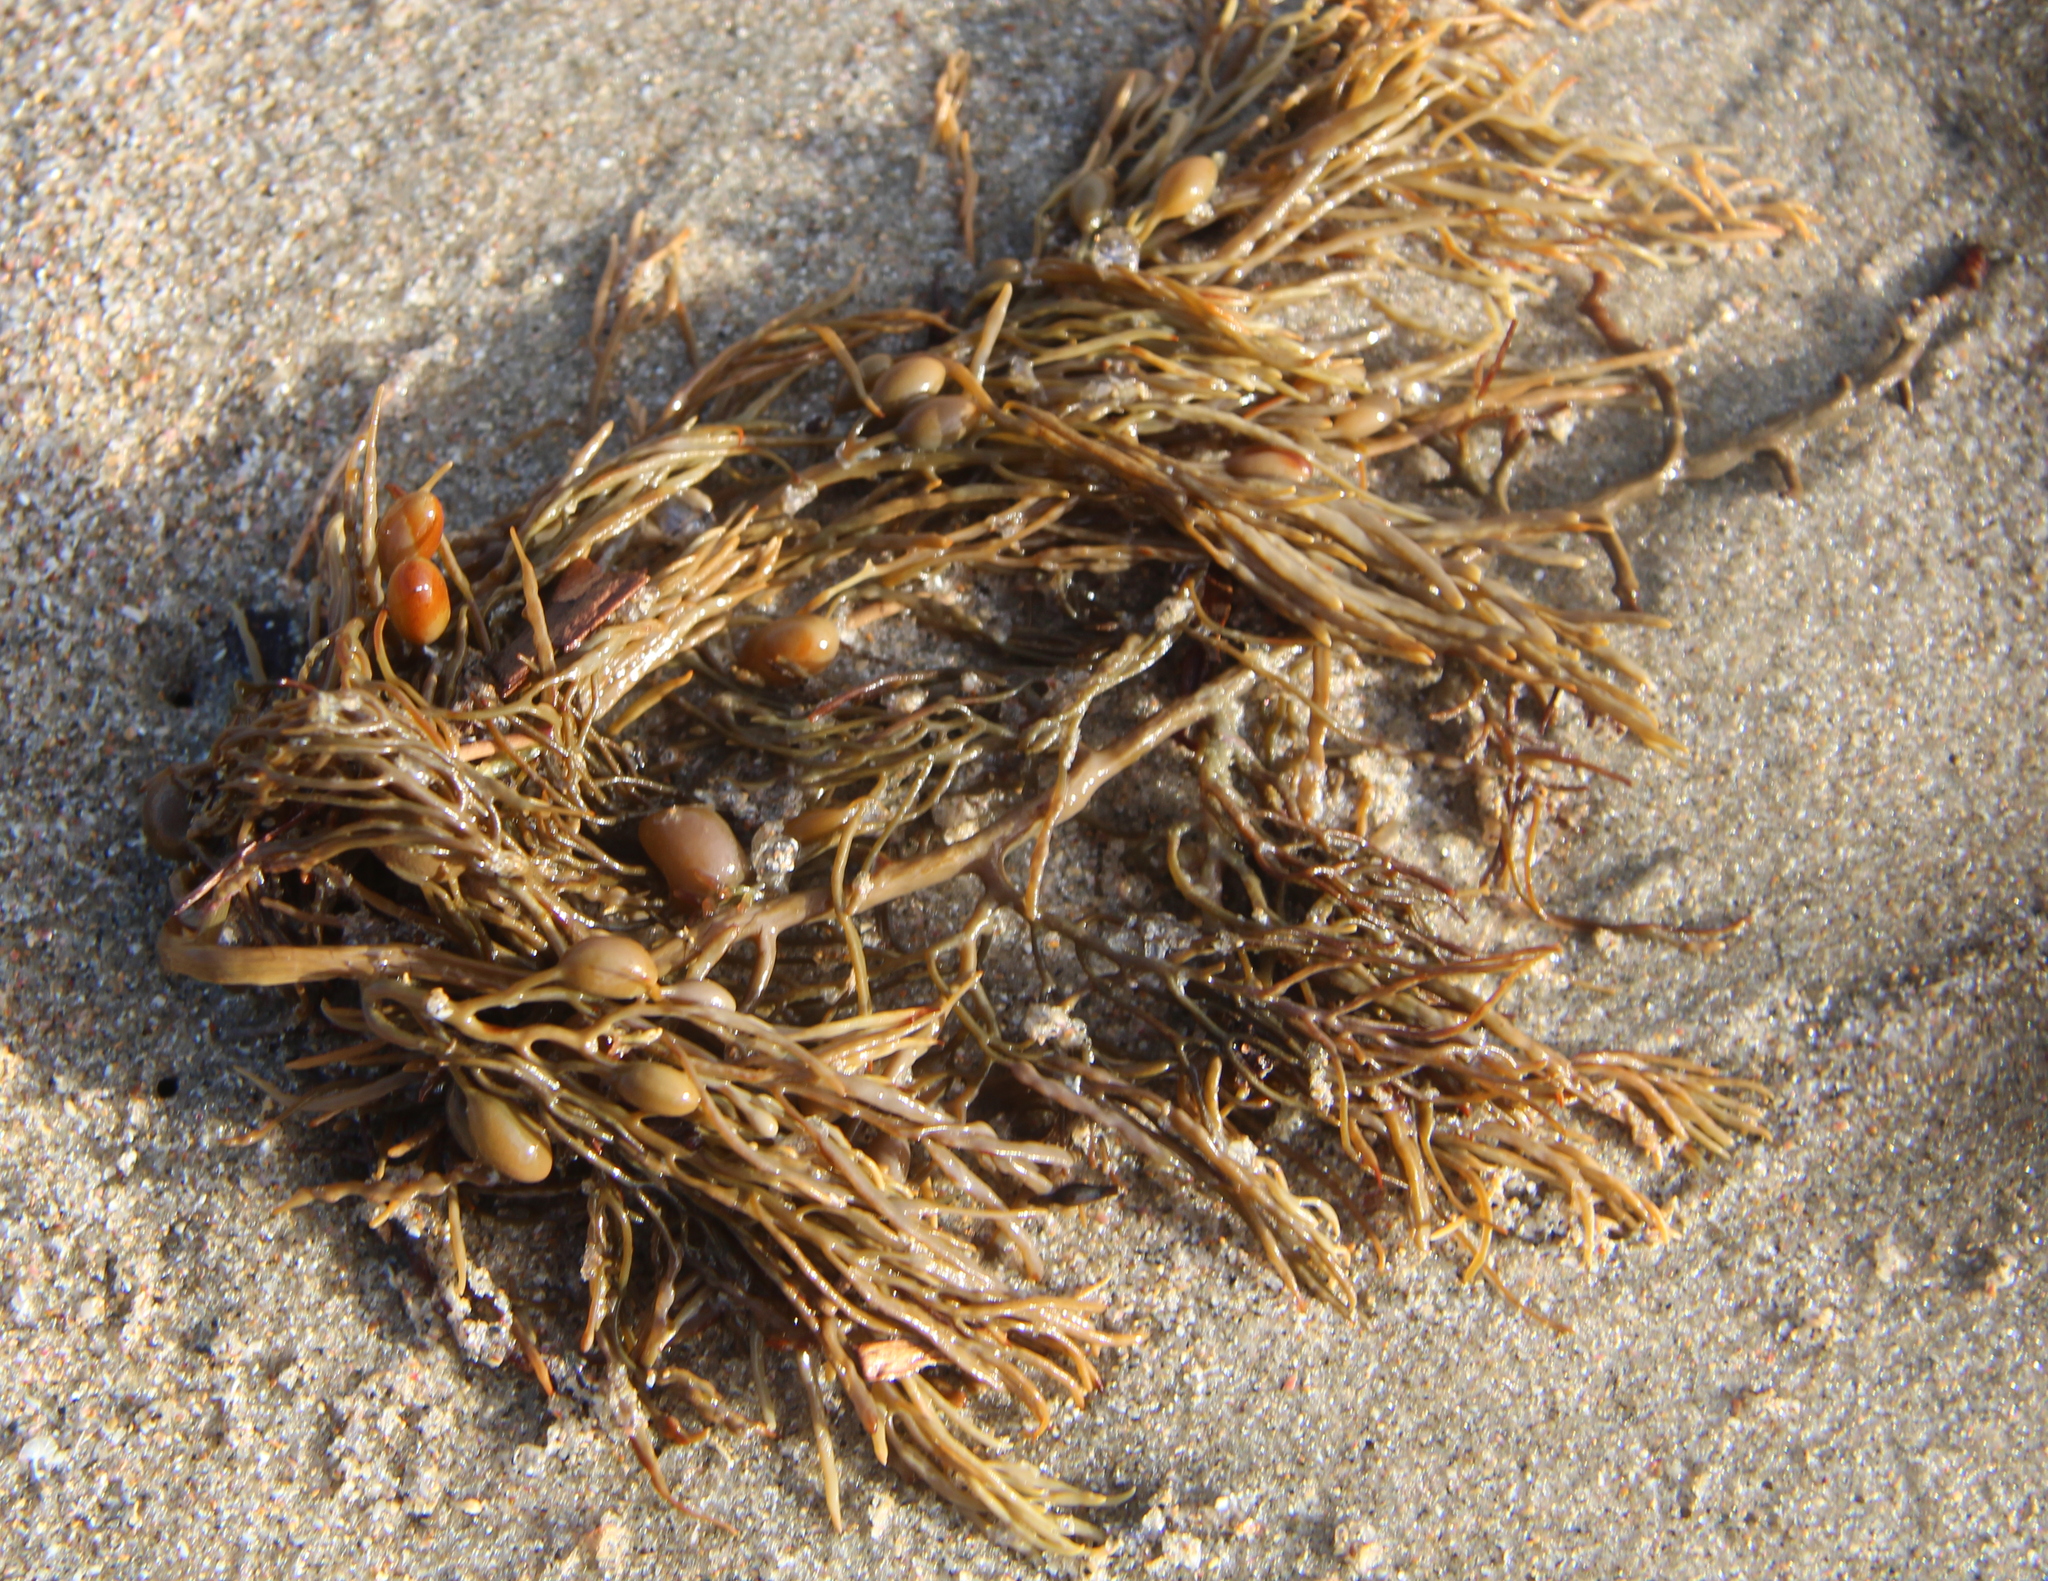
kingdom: Chromista
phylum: Ochrophyta
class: Phaeophyceae
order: Fucales
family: Sargassaceae
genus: Cystophora
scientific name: Cystophora retroflexa
